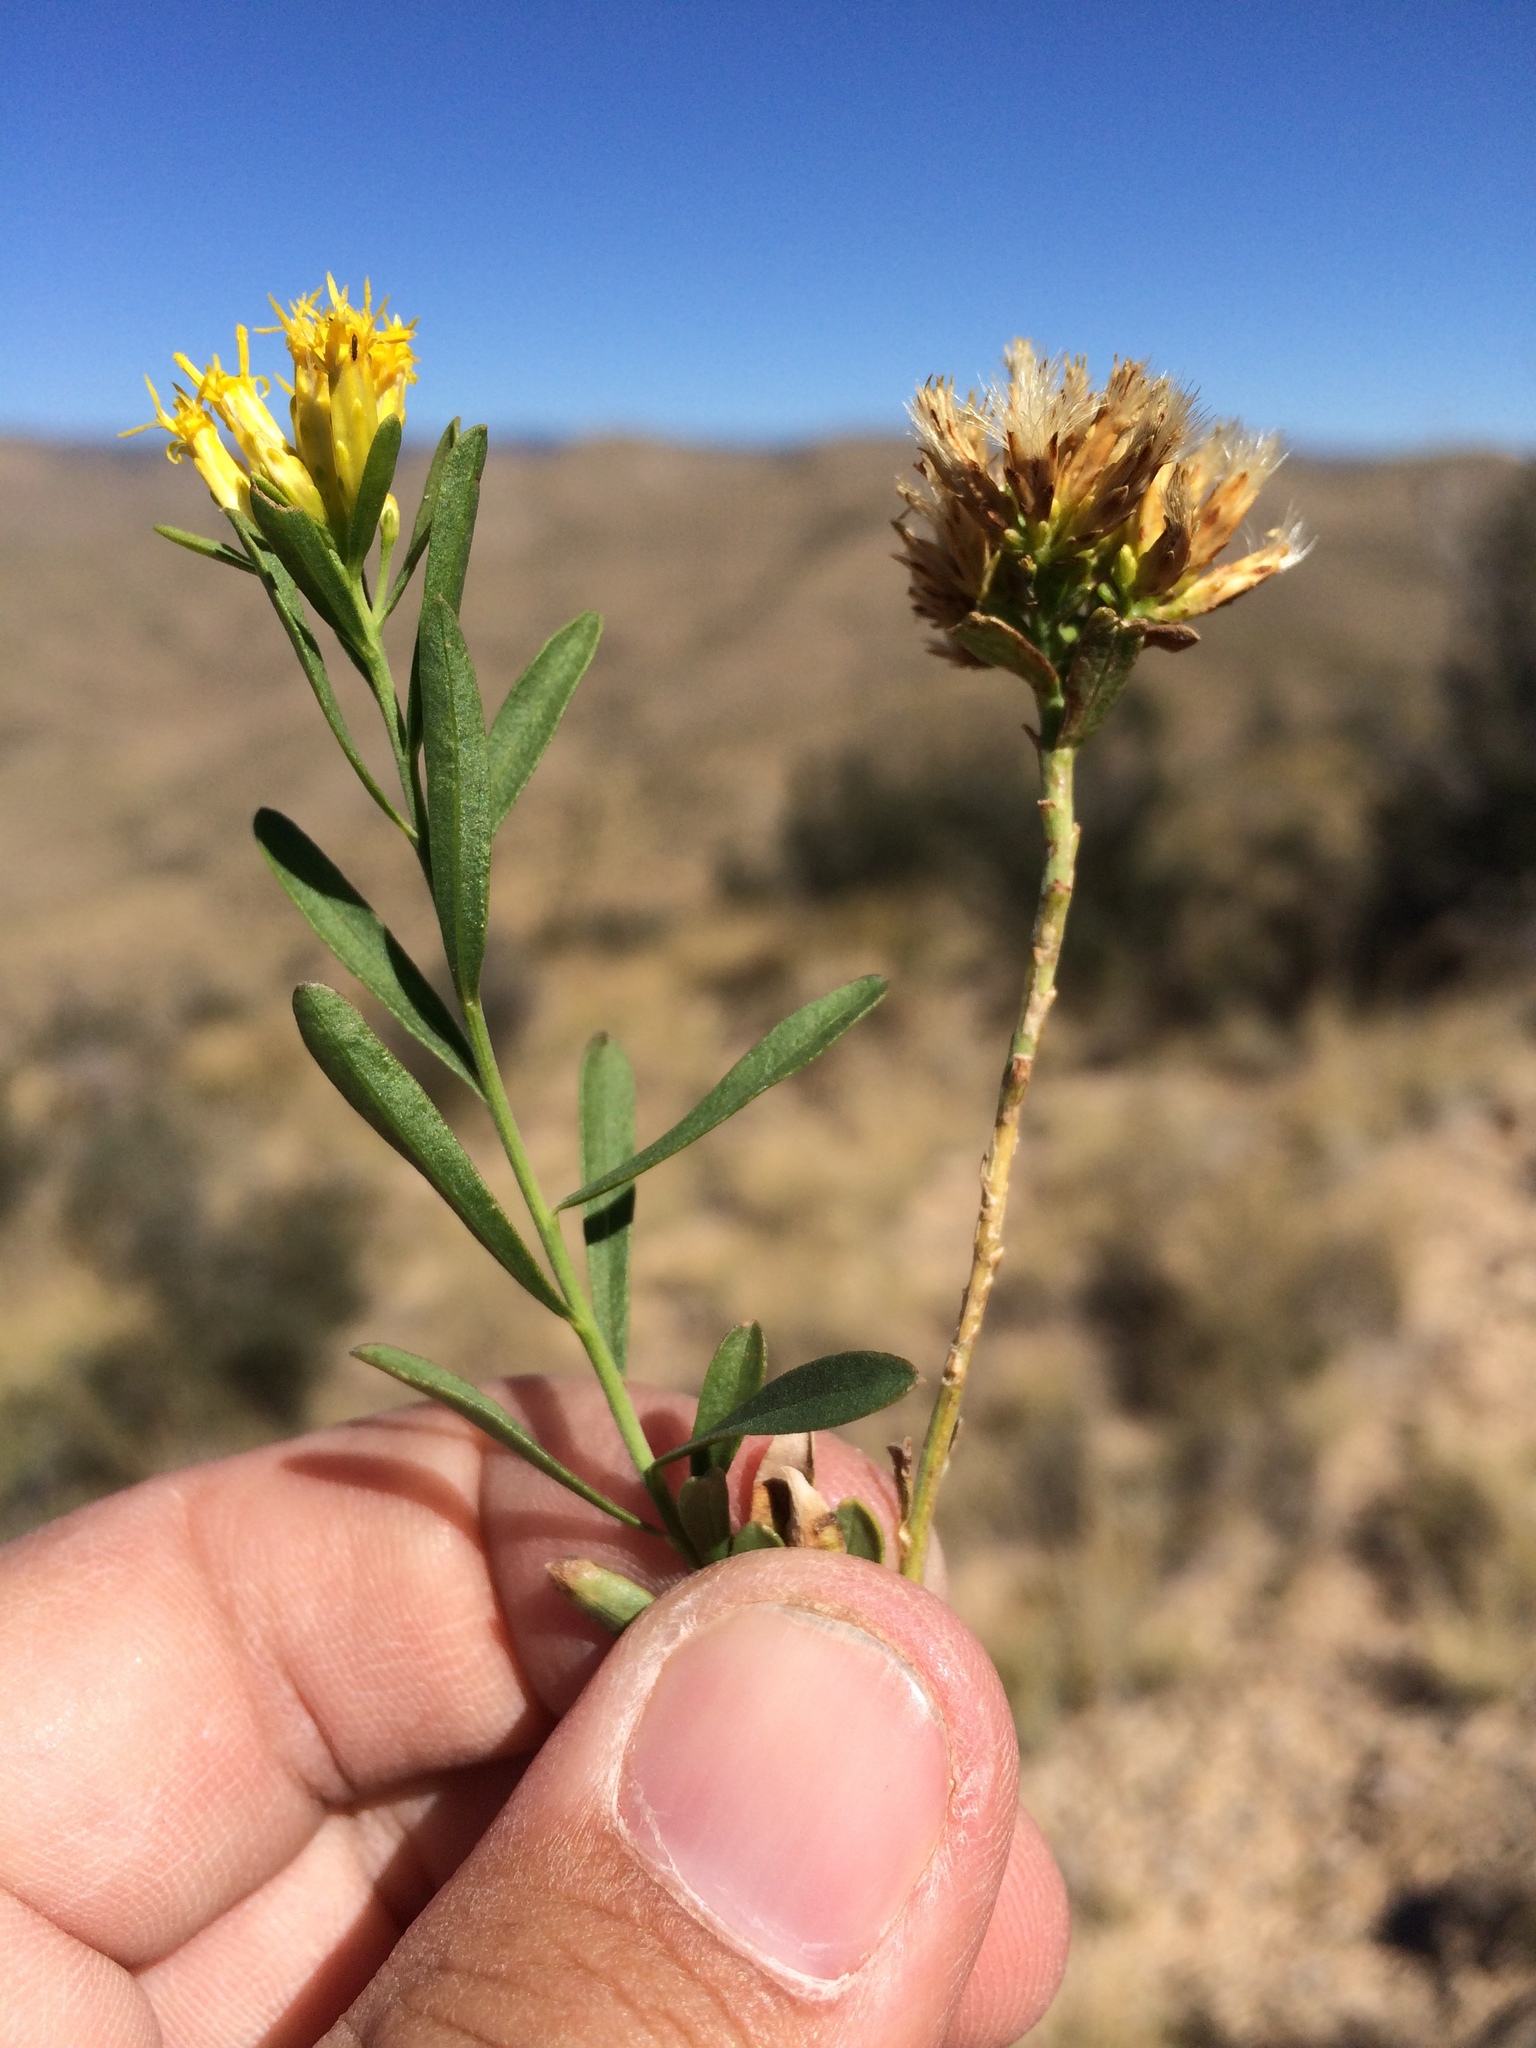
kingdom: Plantae
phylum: Tracheophyta
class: Magnoliopsida
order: Asterales
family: Asteraceae
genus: Lorandersonia
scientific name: Lorandersonia spathulata
